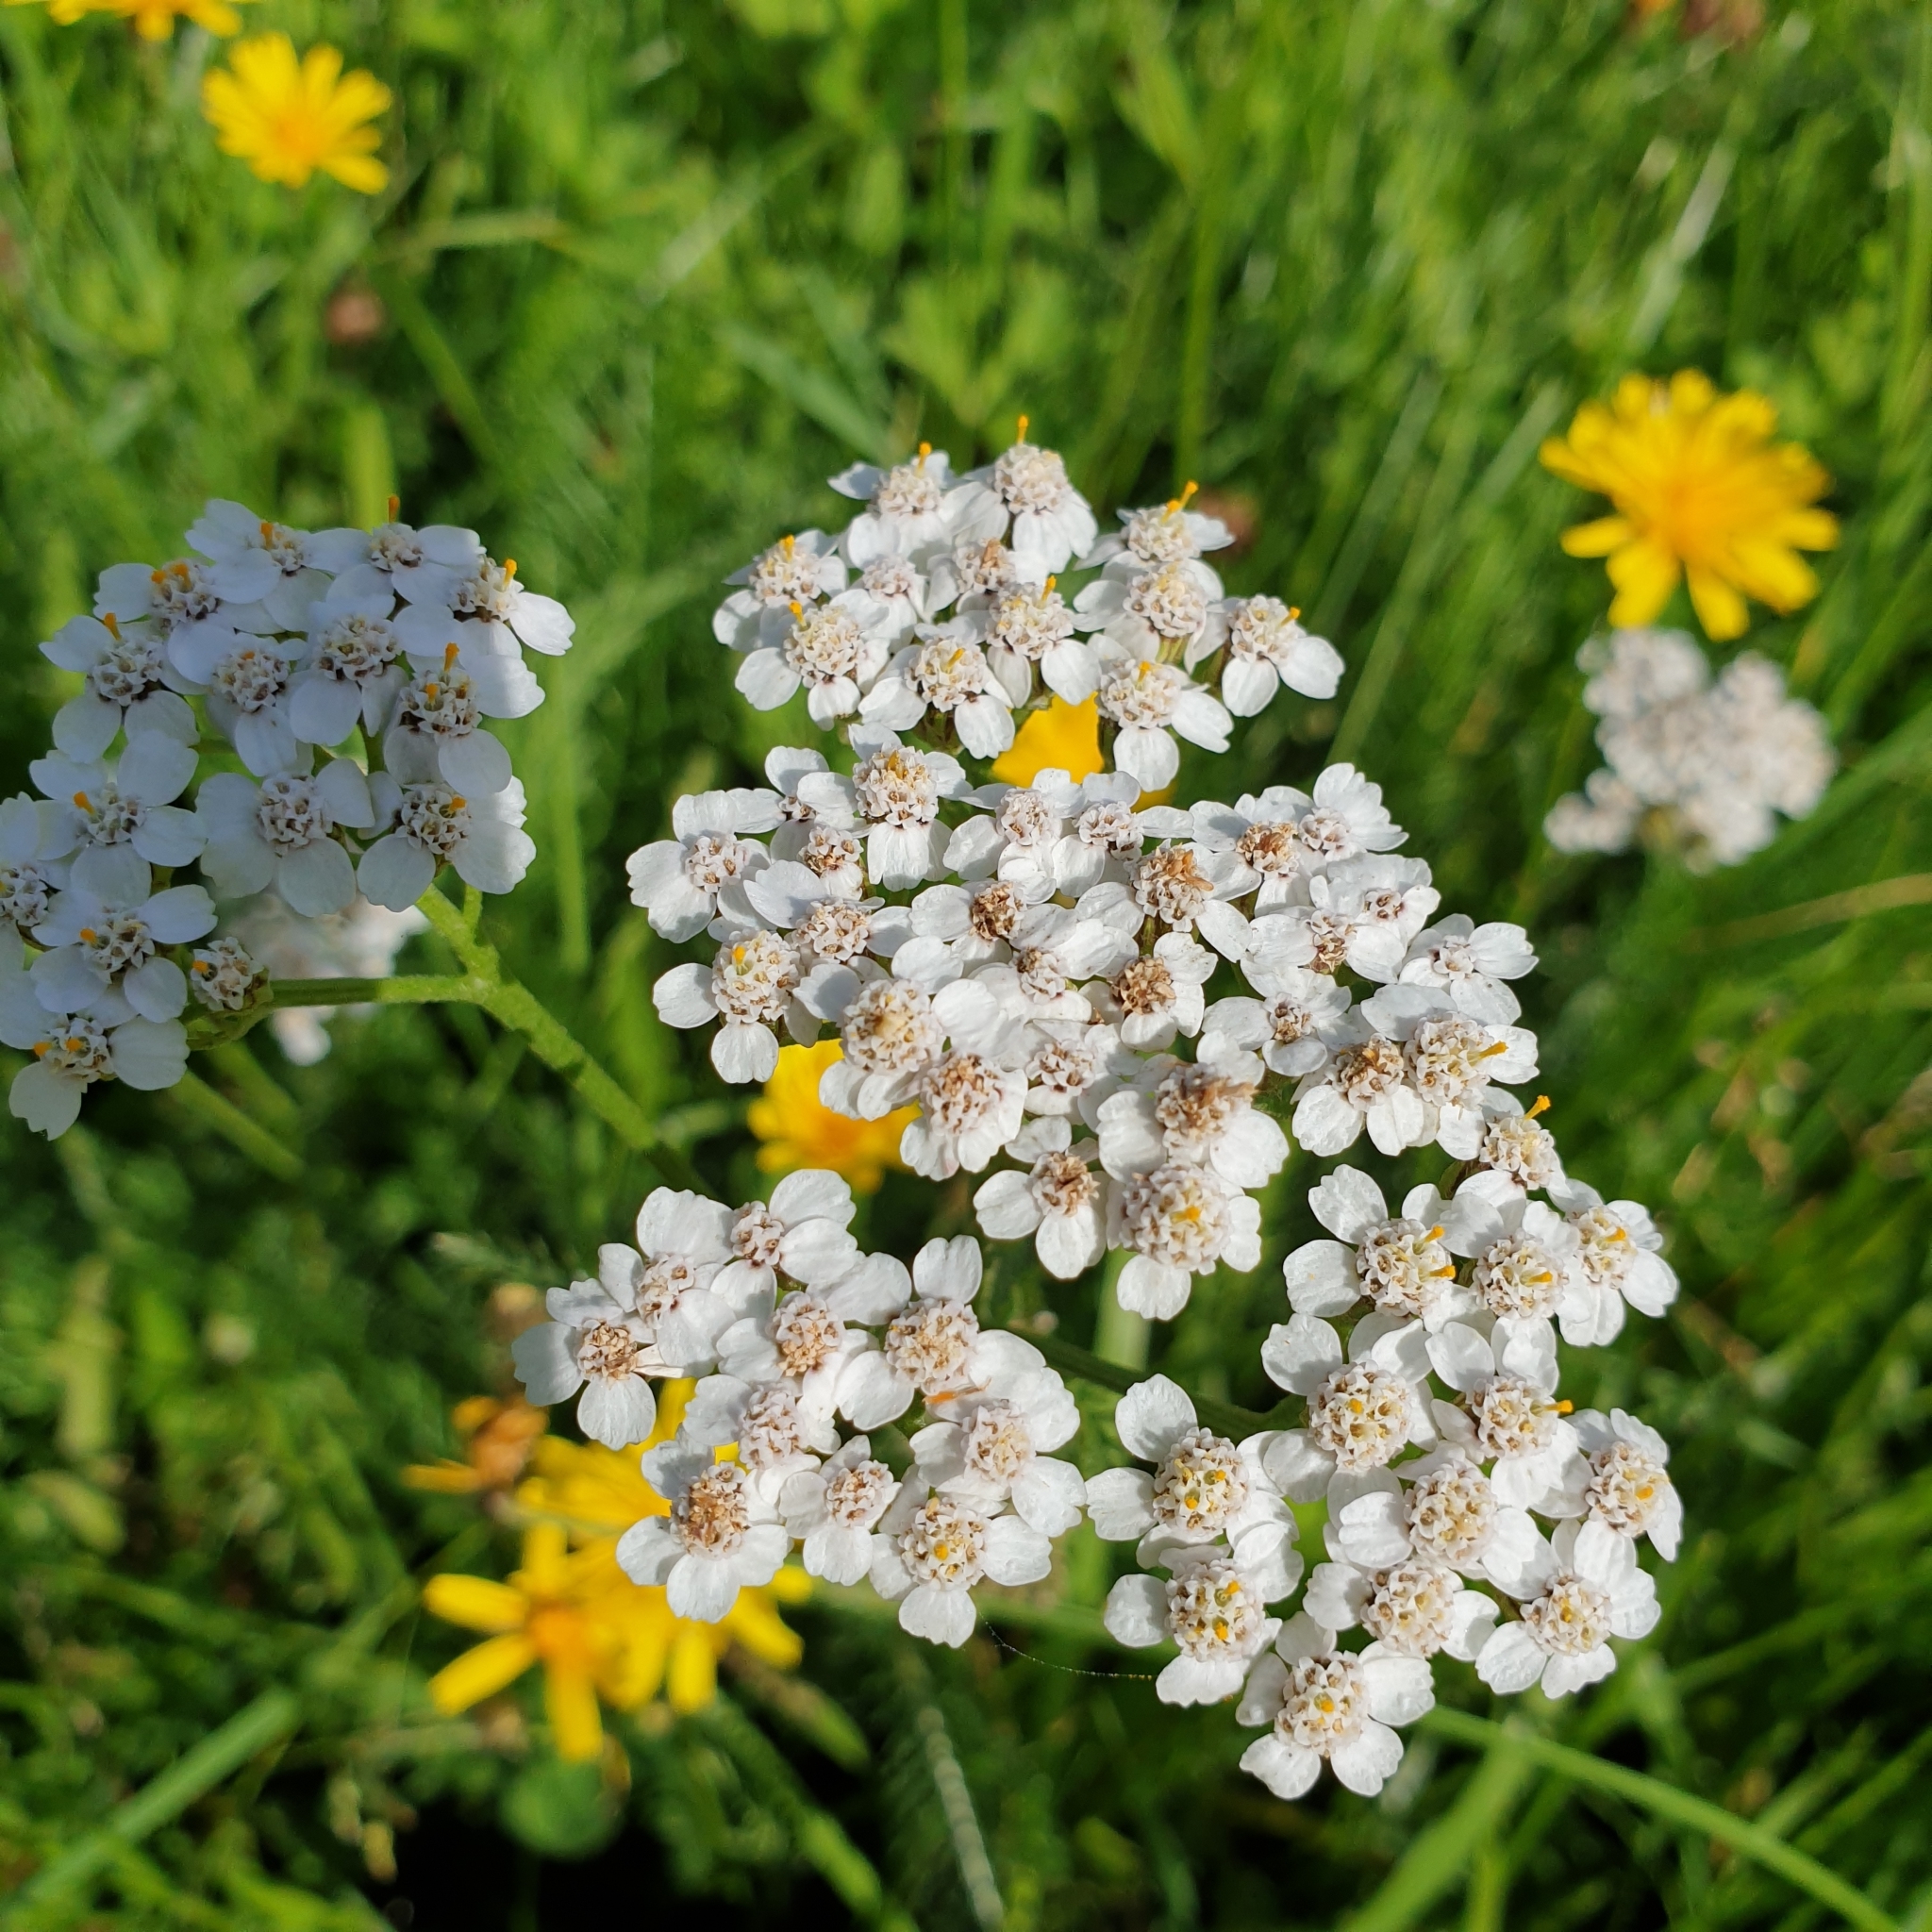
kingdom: Plantae
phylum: Tracheophyta
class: Magnoliopsida
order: Asterales
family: Asteraceae
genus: Achillea
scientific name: Achillea millefolium
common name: Yarrow
